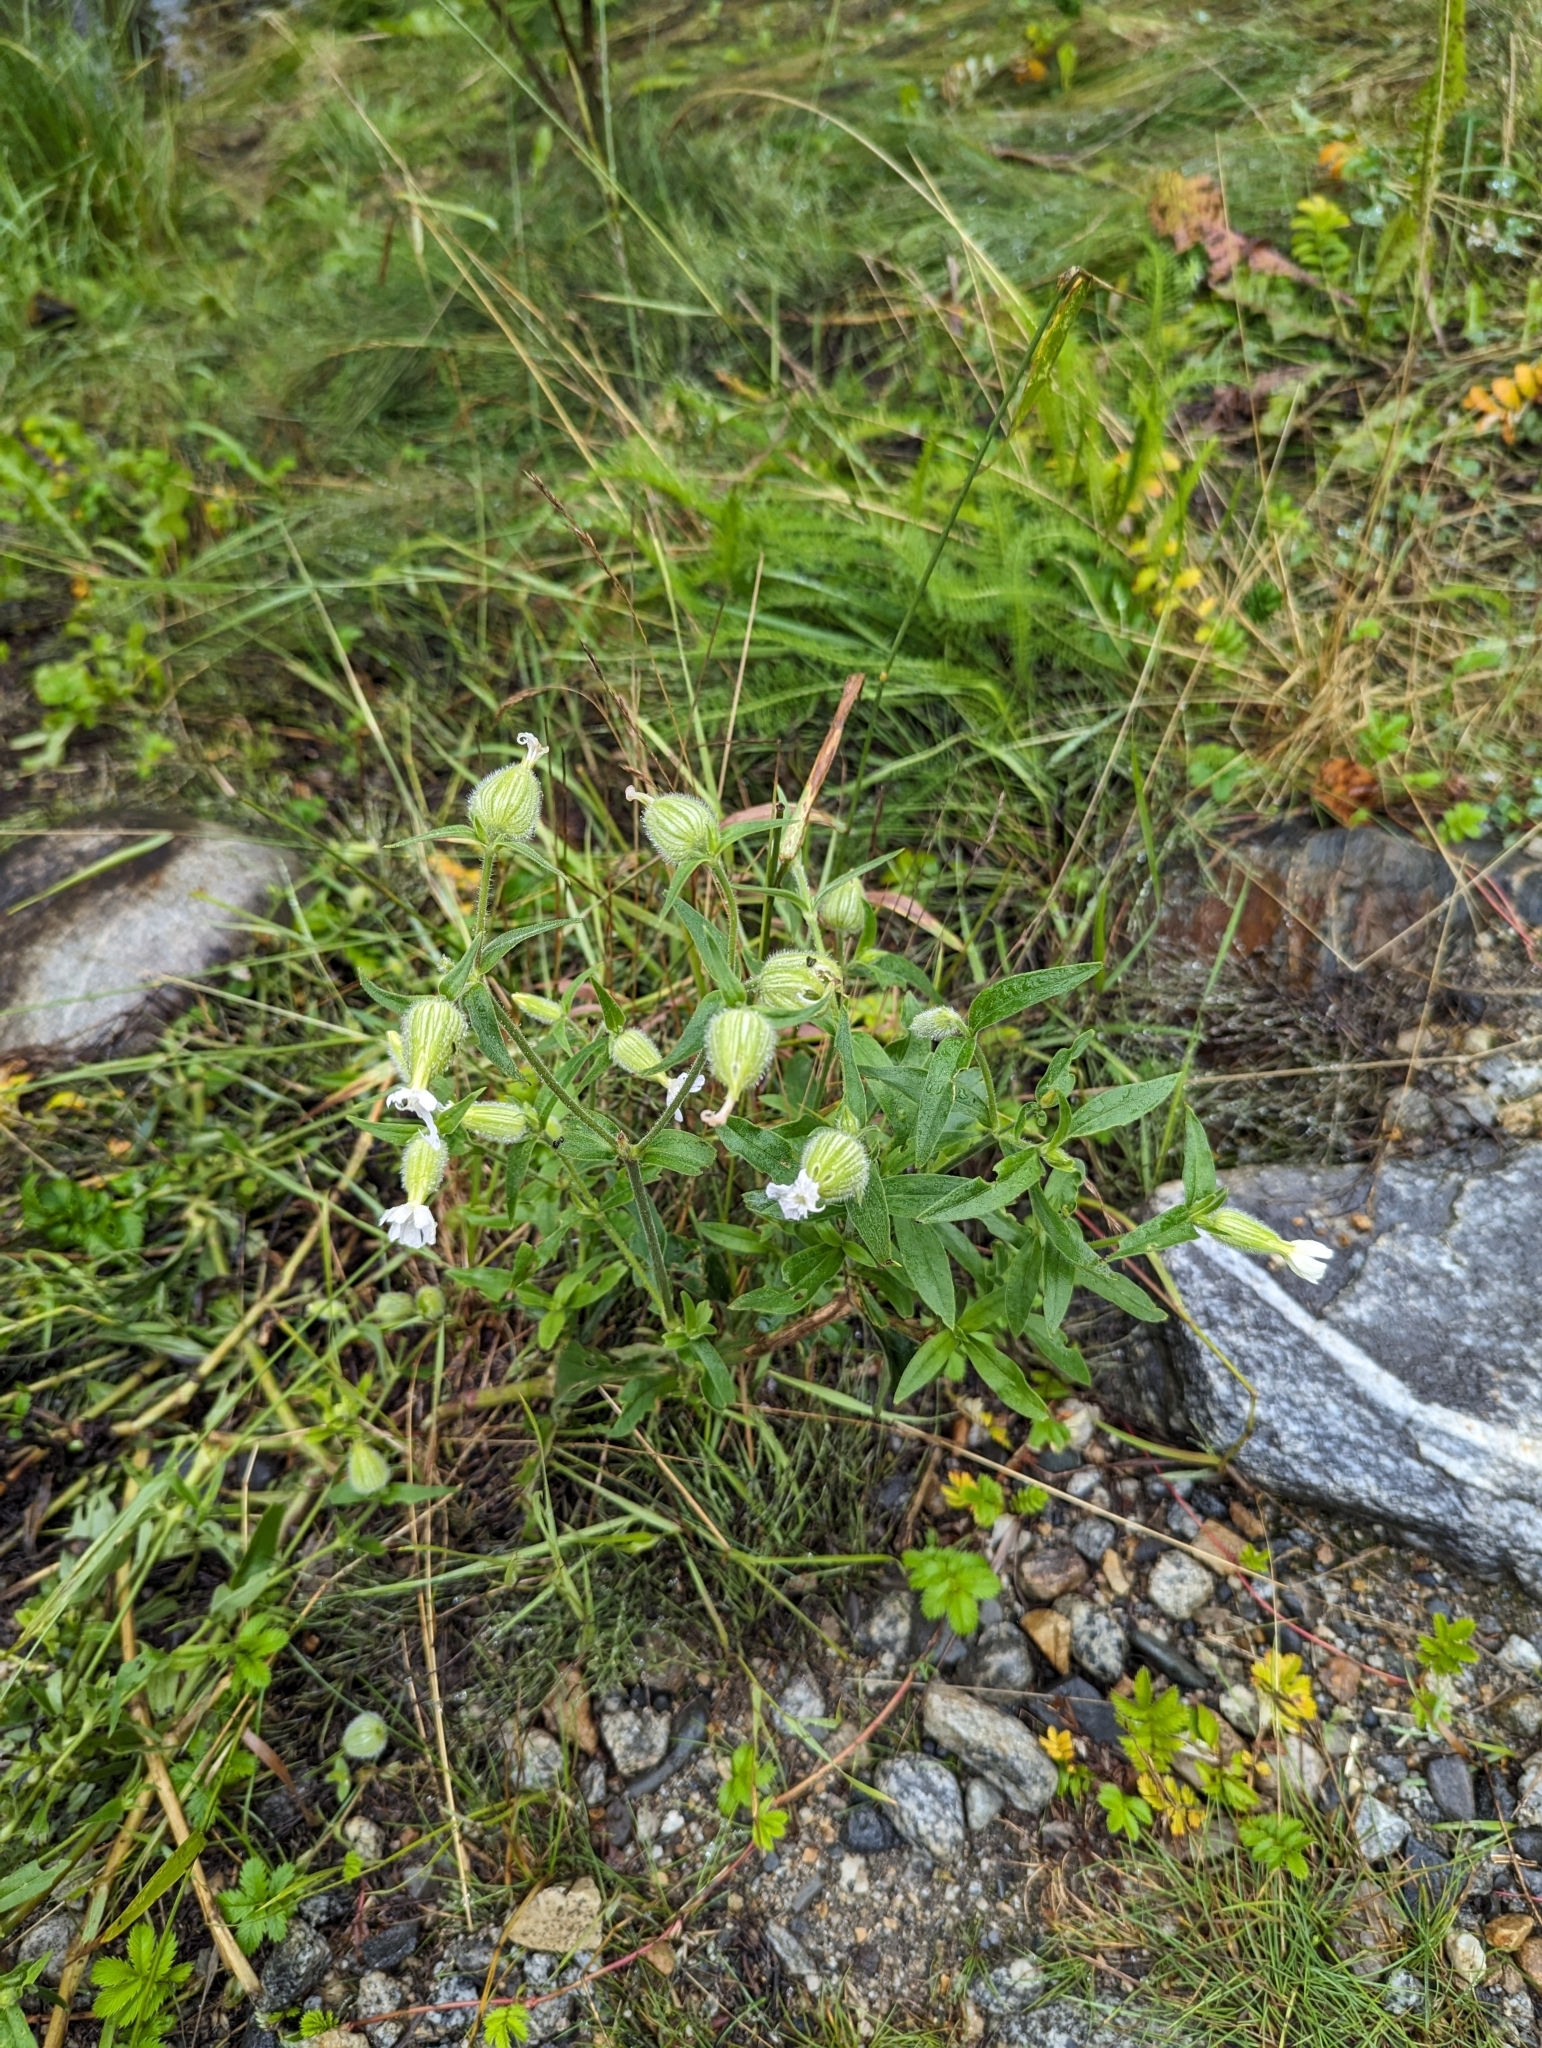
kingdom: Plantae
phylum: Tracheophyta
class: Magnoliopsida
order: Caryophyllales
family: Caryophyllaceae
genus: Silene
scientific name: Silene latifolia
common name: White campion
